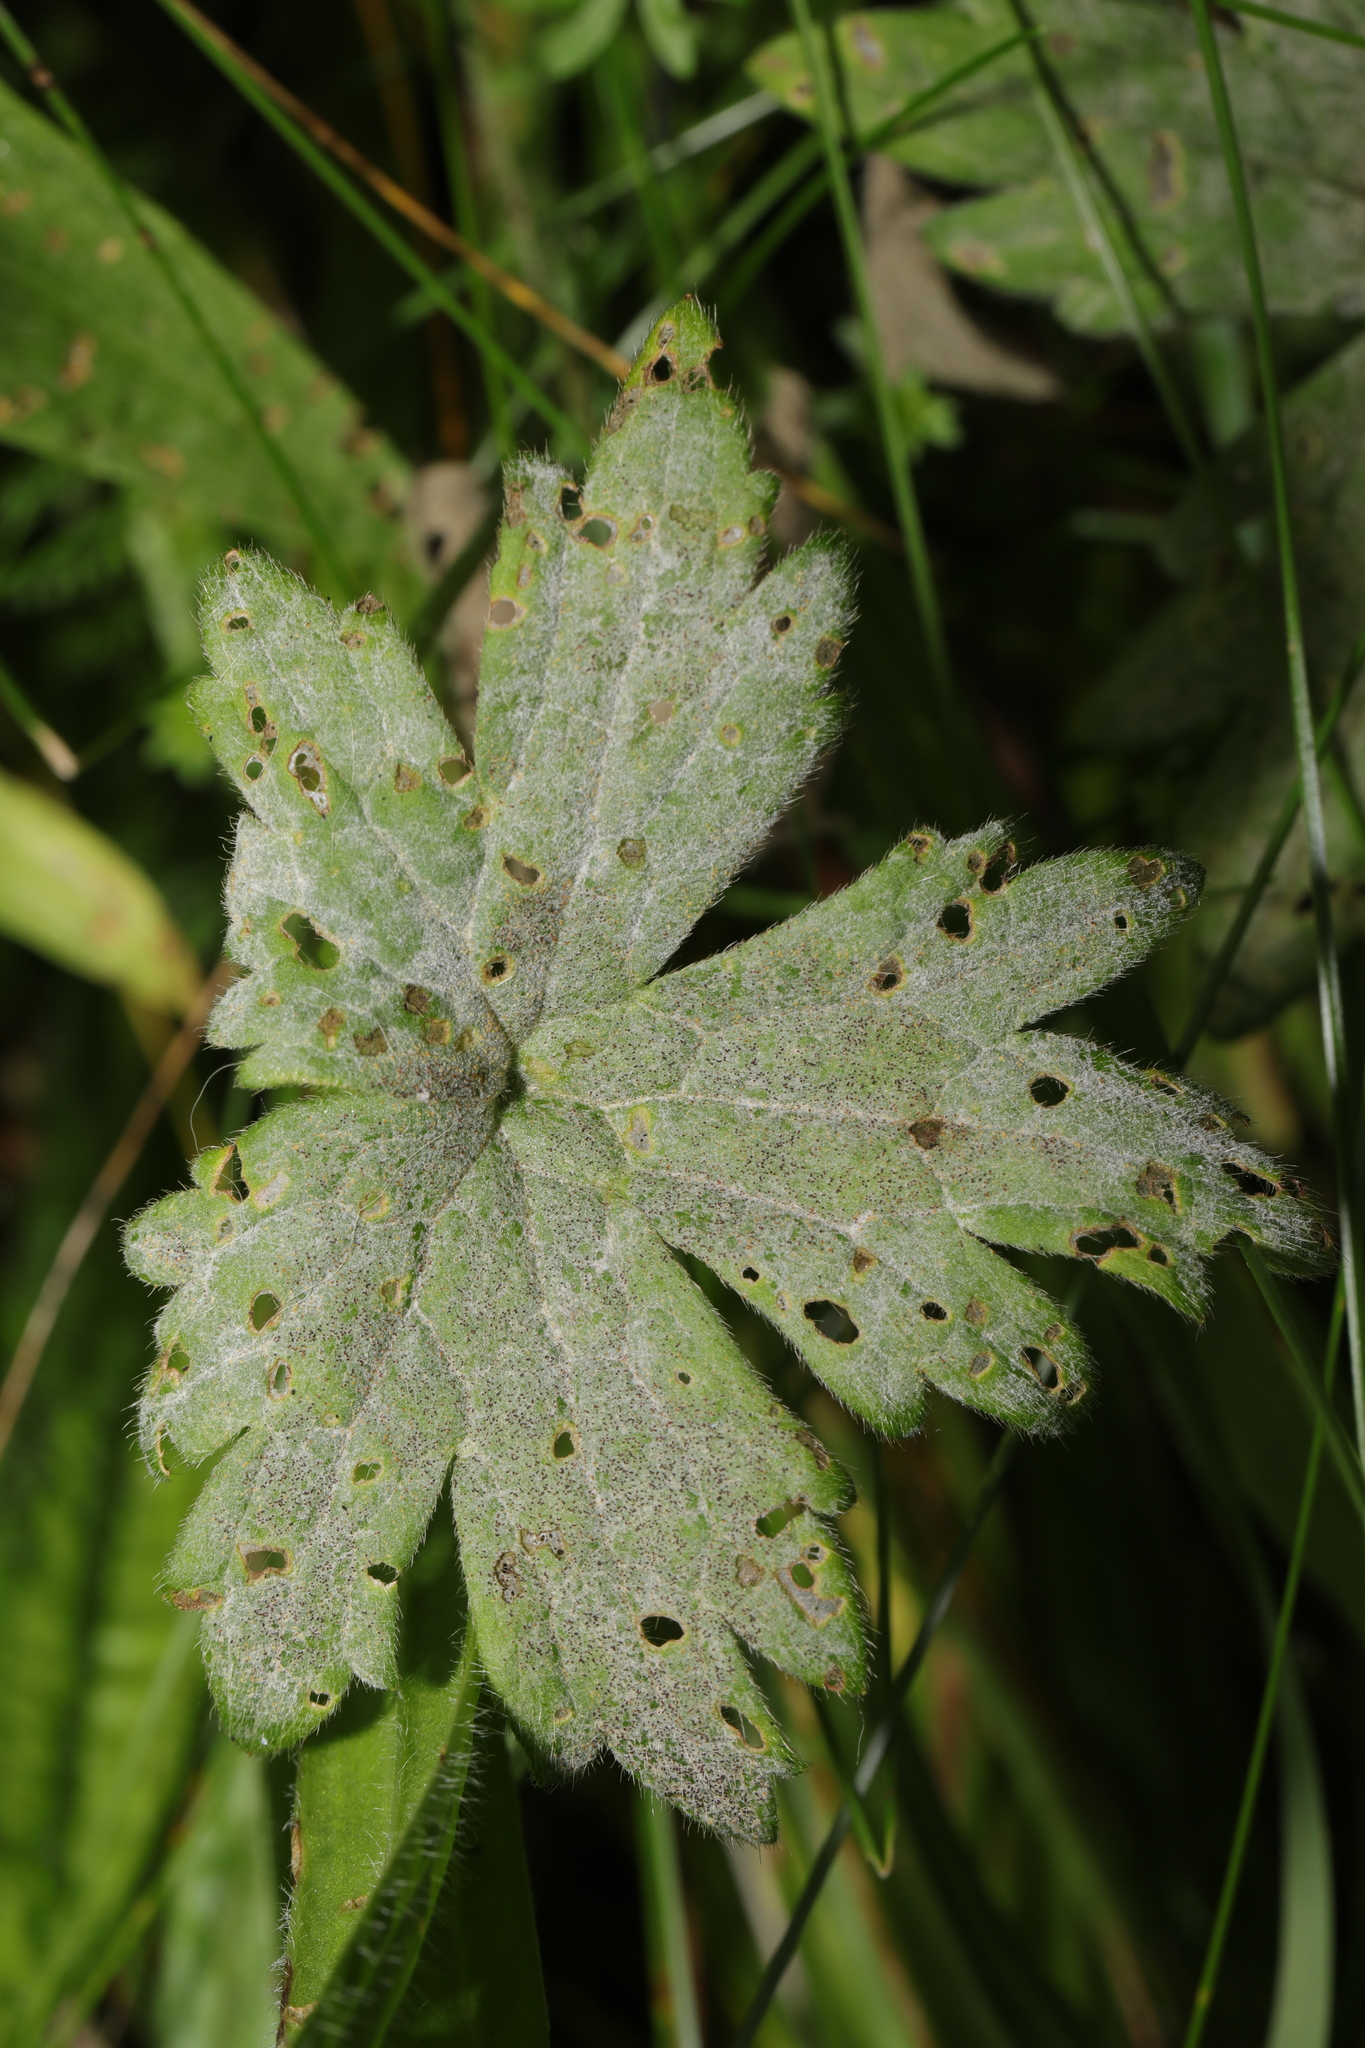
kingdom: Fungi
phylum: Ascomycota
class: Leotiomycetes
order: Helotiales
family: Erysiphaceae
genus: Erysiphe
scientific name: Erysiphe aquilegiae
